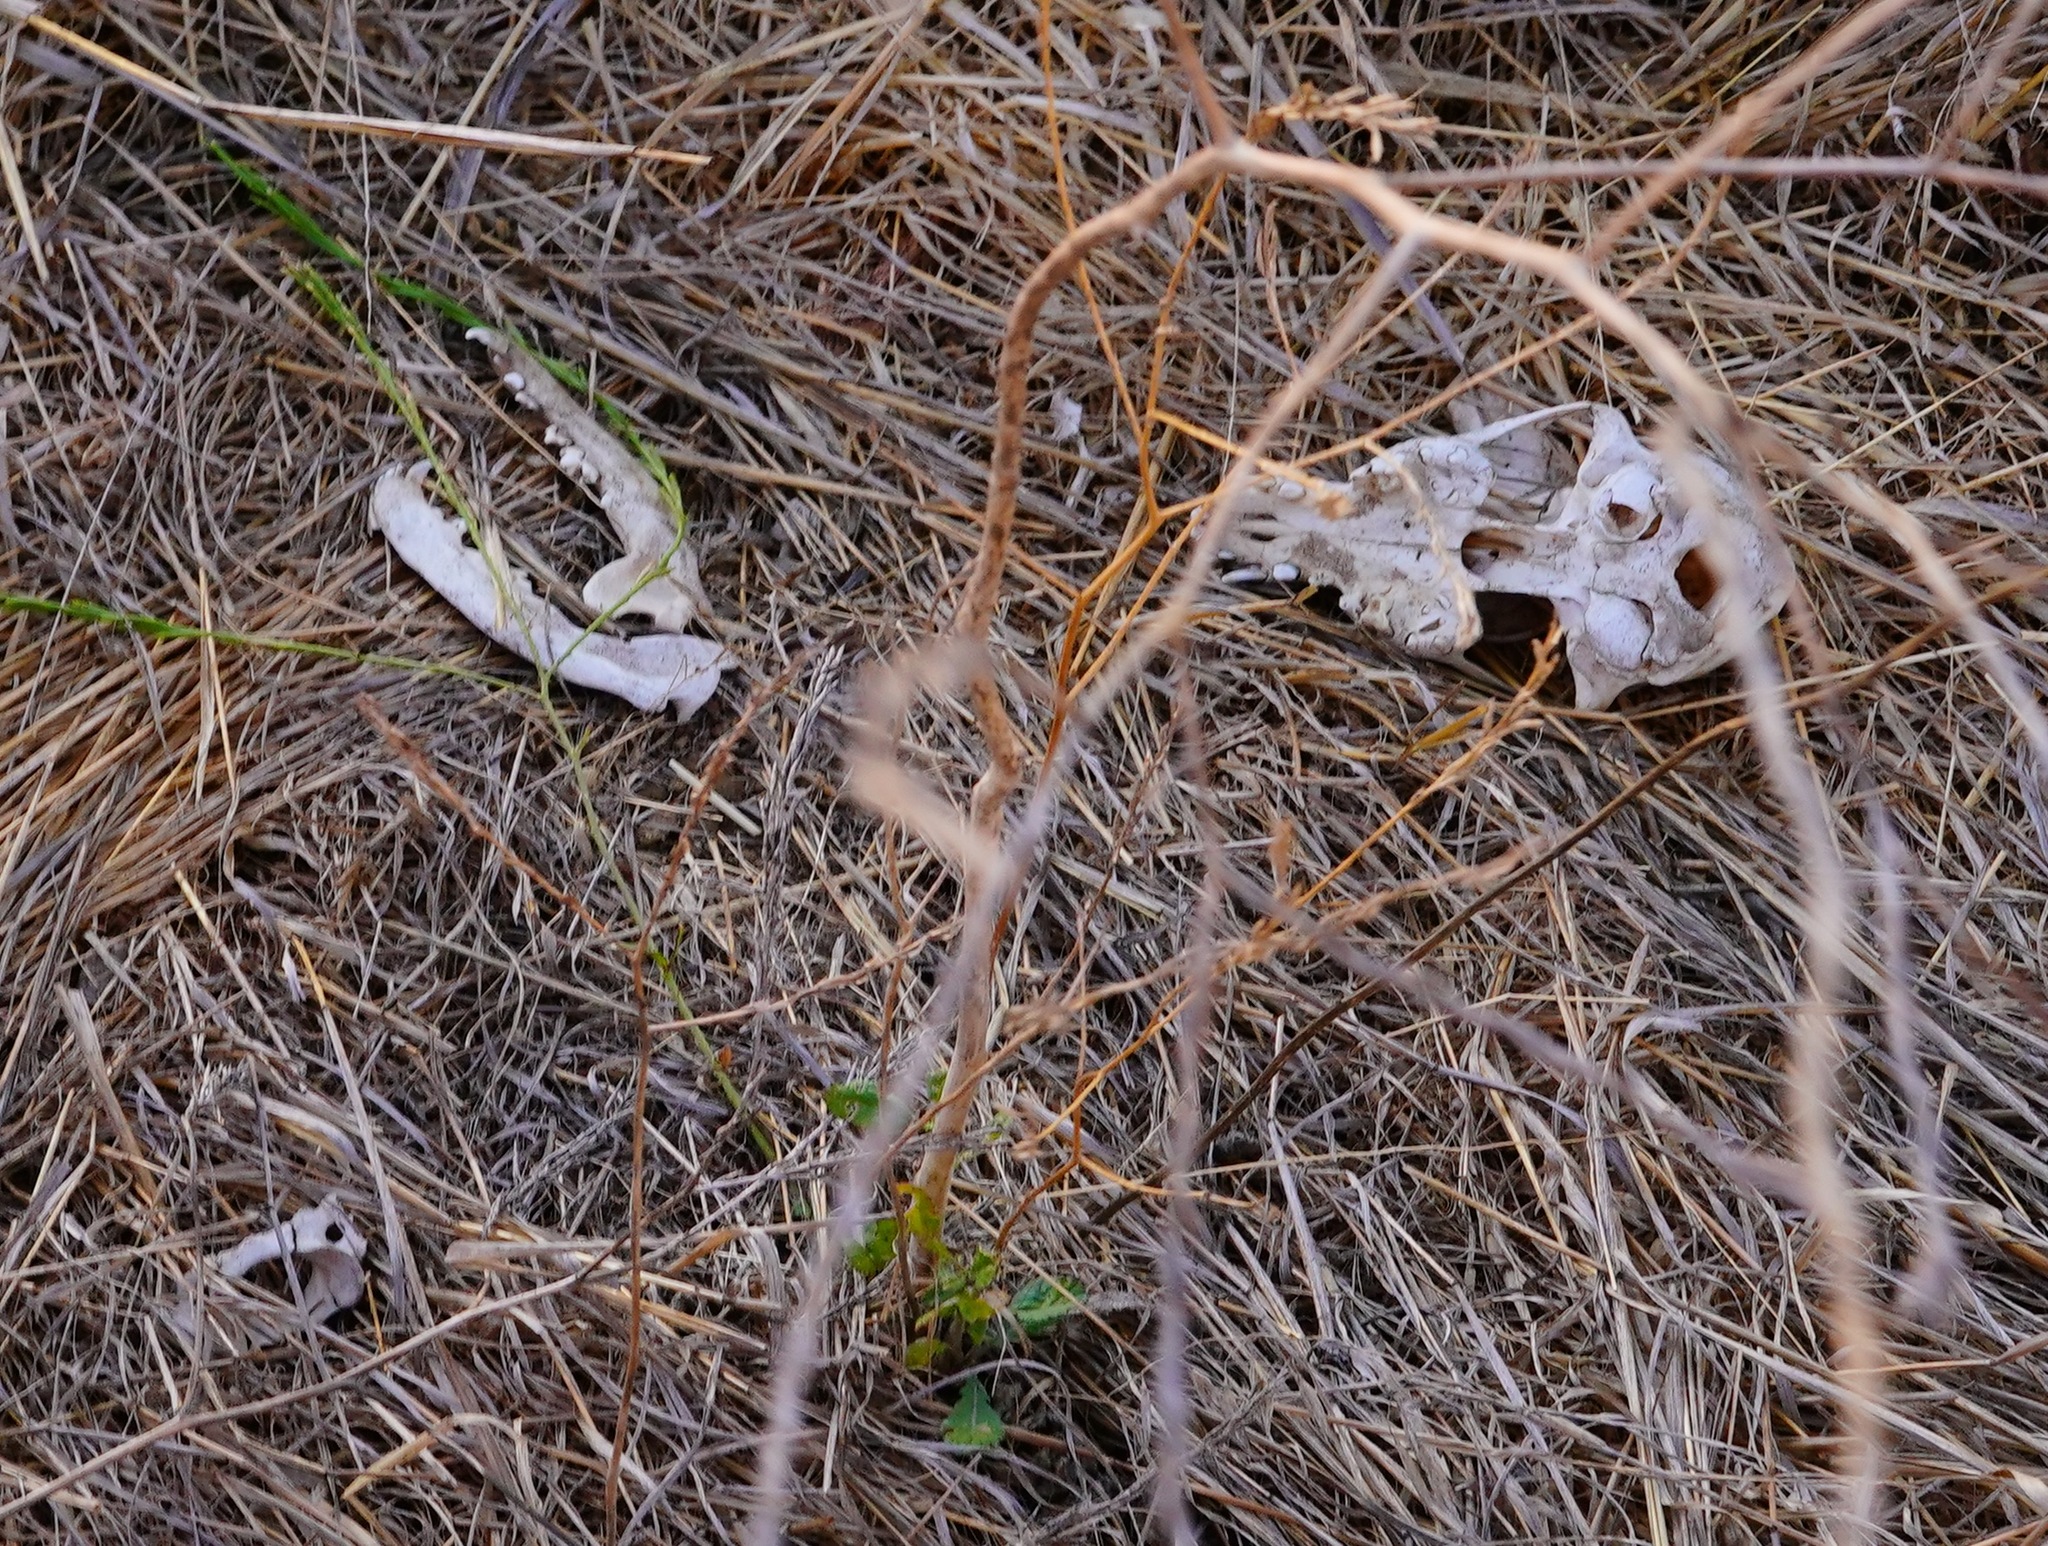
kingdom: Animalia
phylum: Chordata
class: Mammalia
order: Carnivora
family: Canidae
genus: Canis
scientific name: Canis latrans
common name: Coyote
